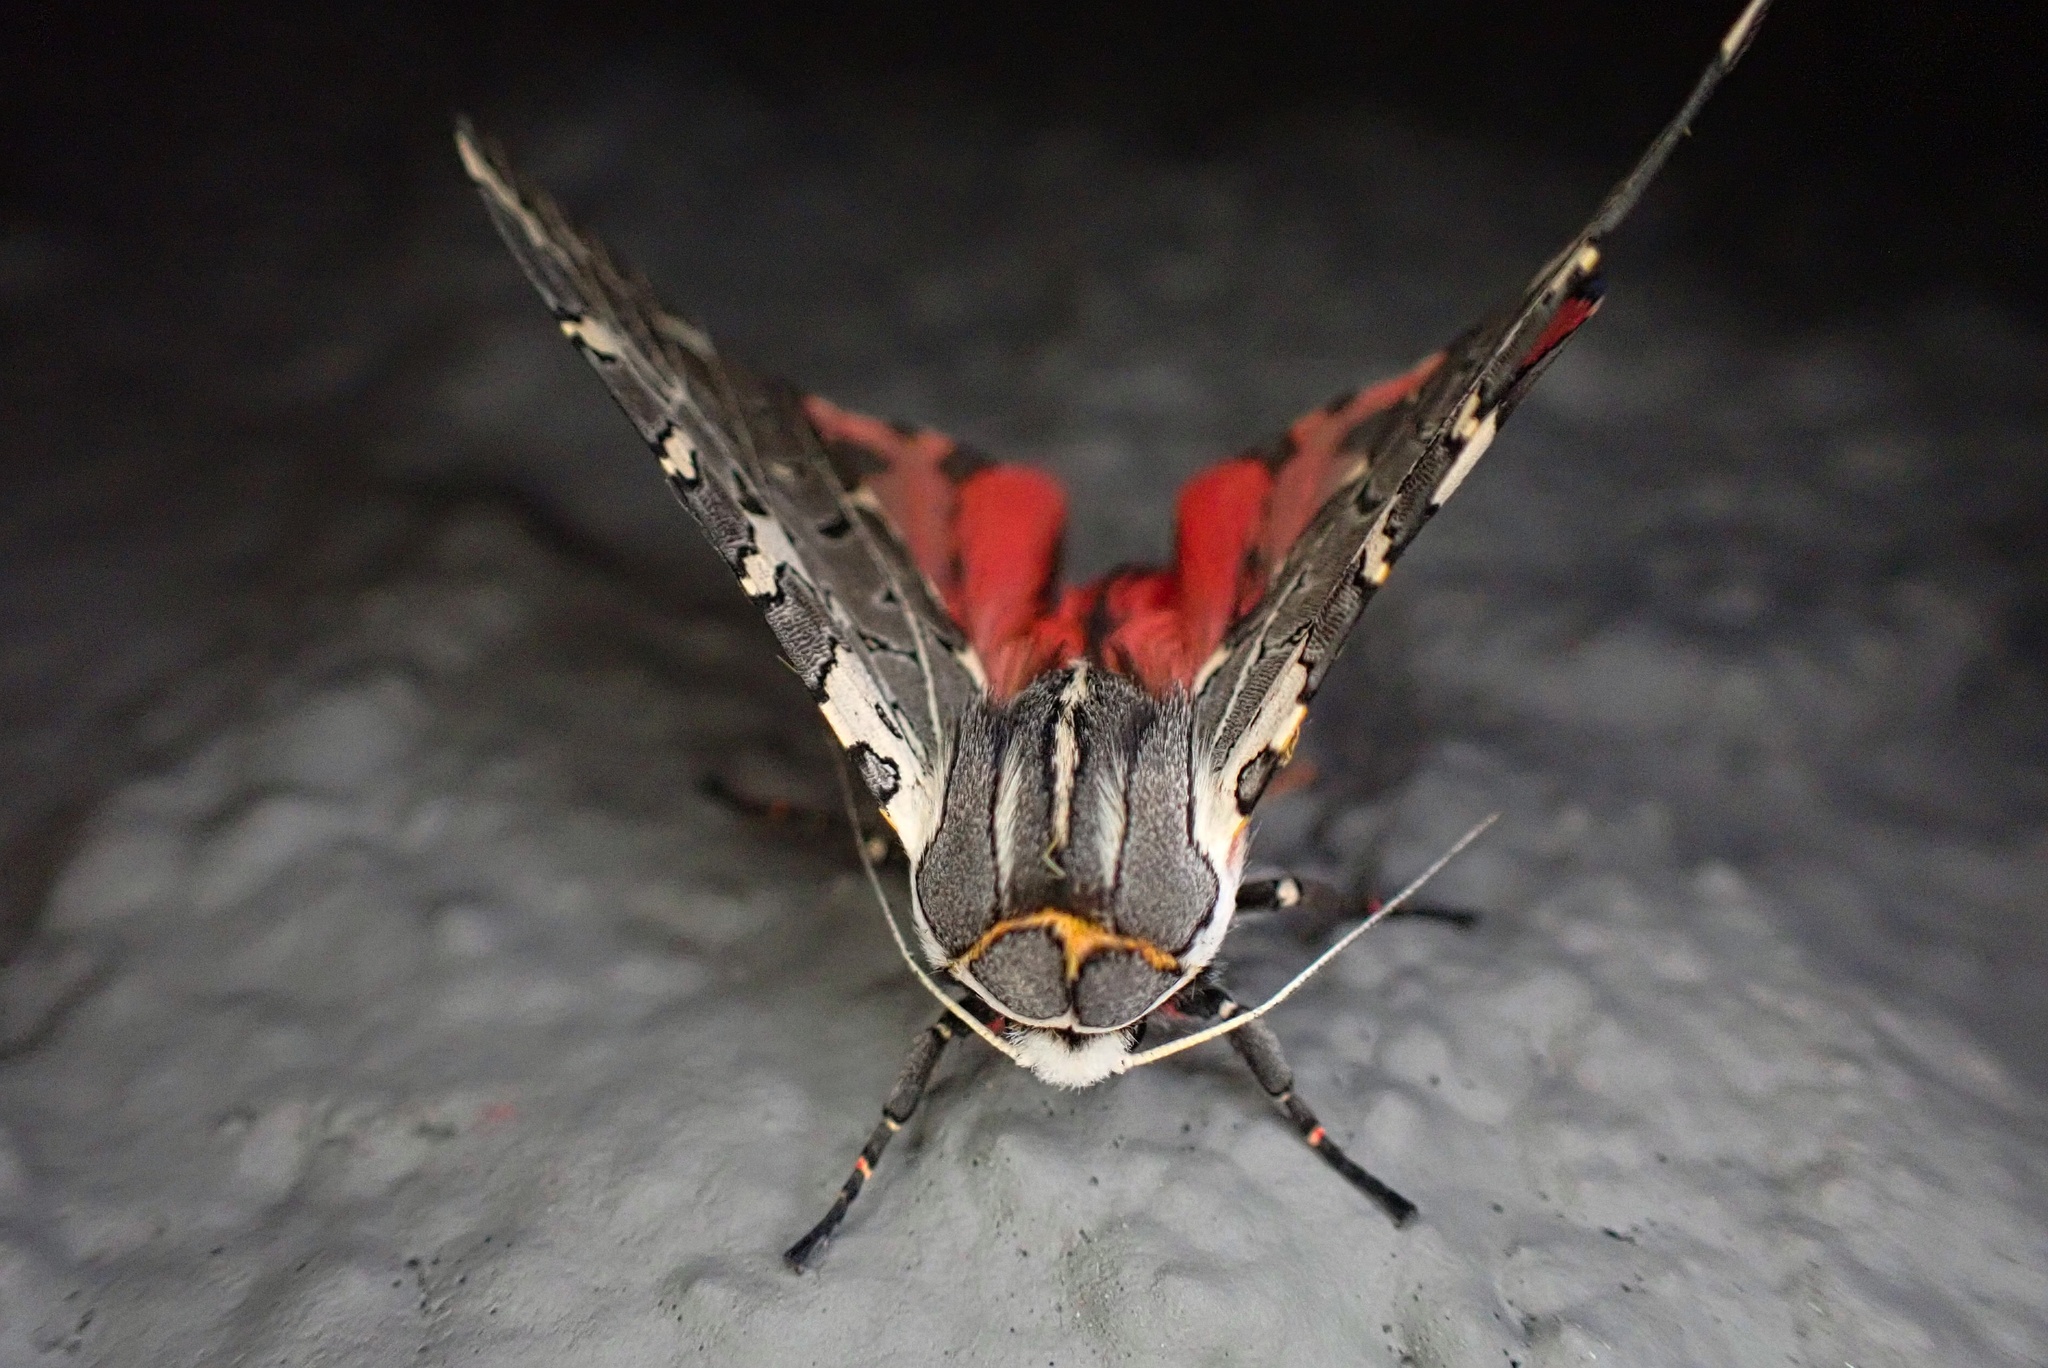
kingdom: Animalia
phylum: Arthropoda
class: Insecta
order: Lepidoptera
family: Erebidae
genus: Arachnis
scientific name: Arachnis picta
